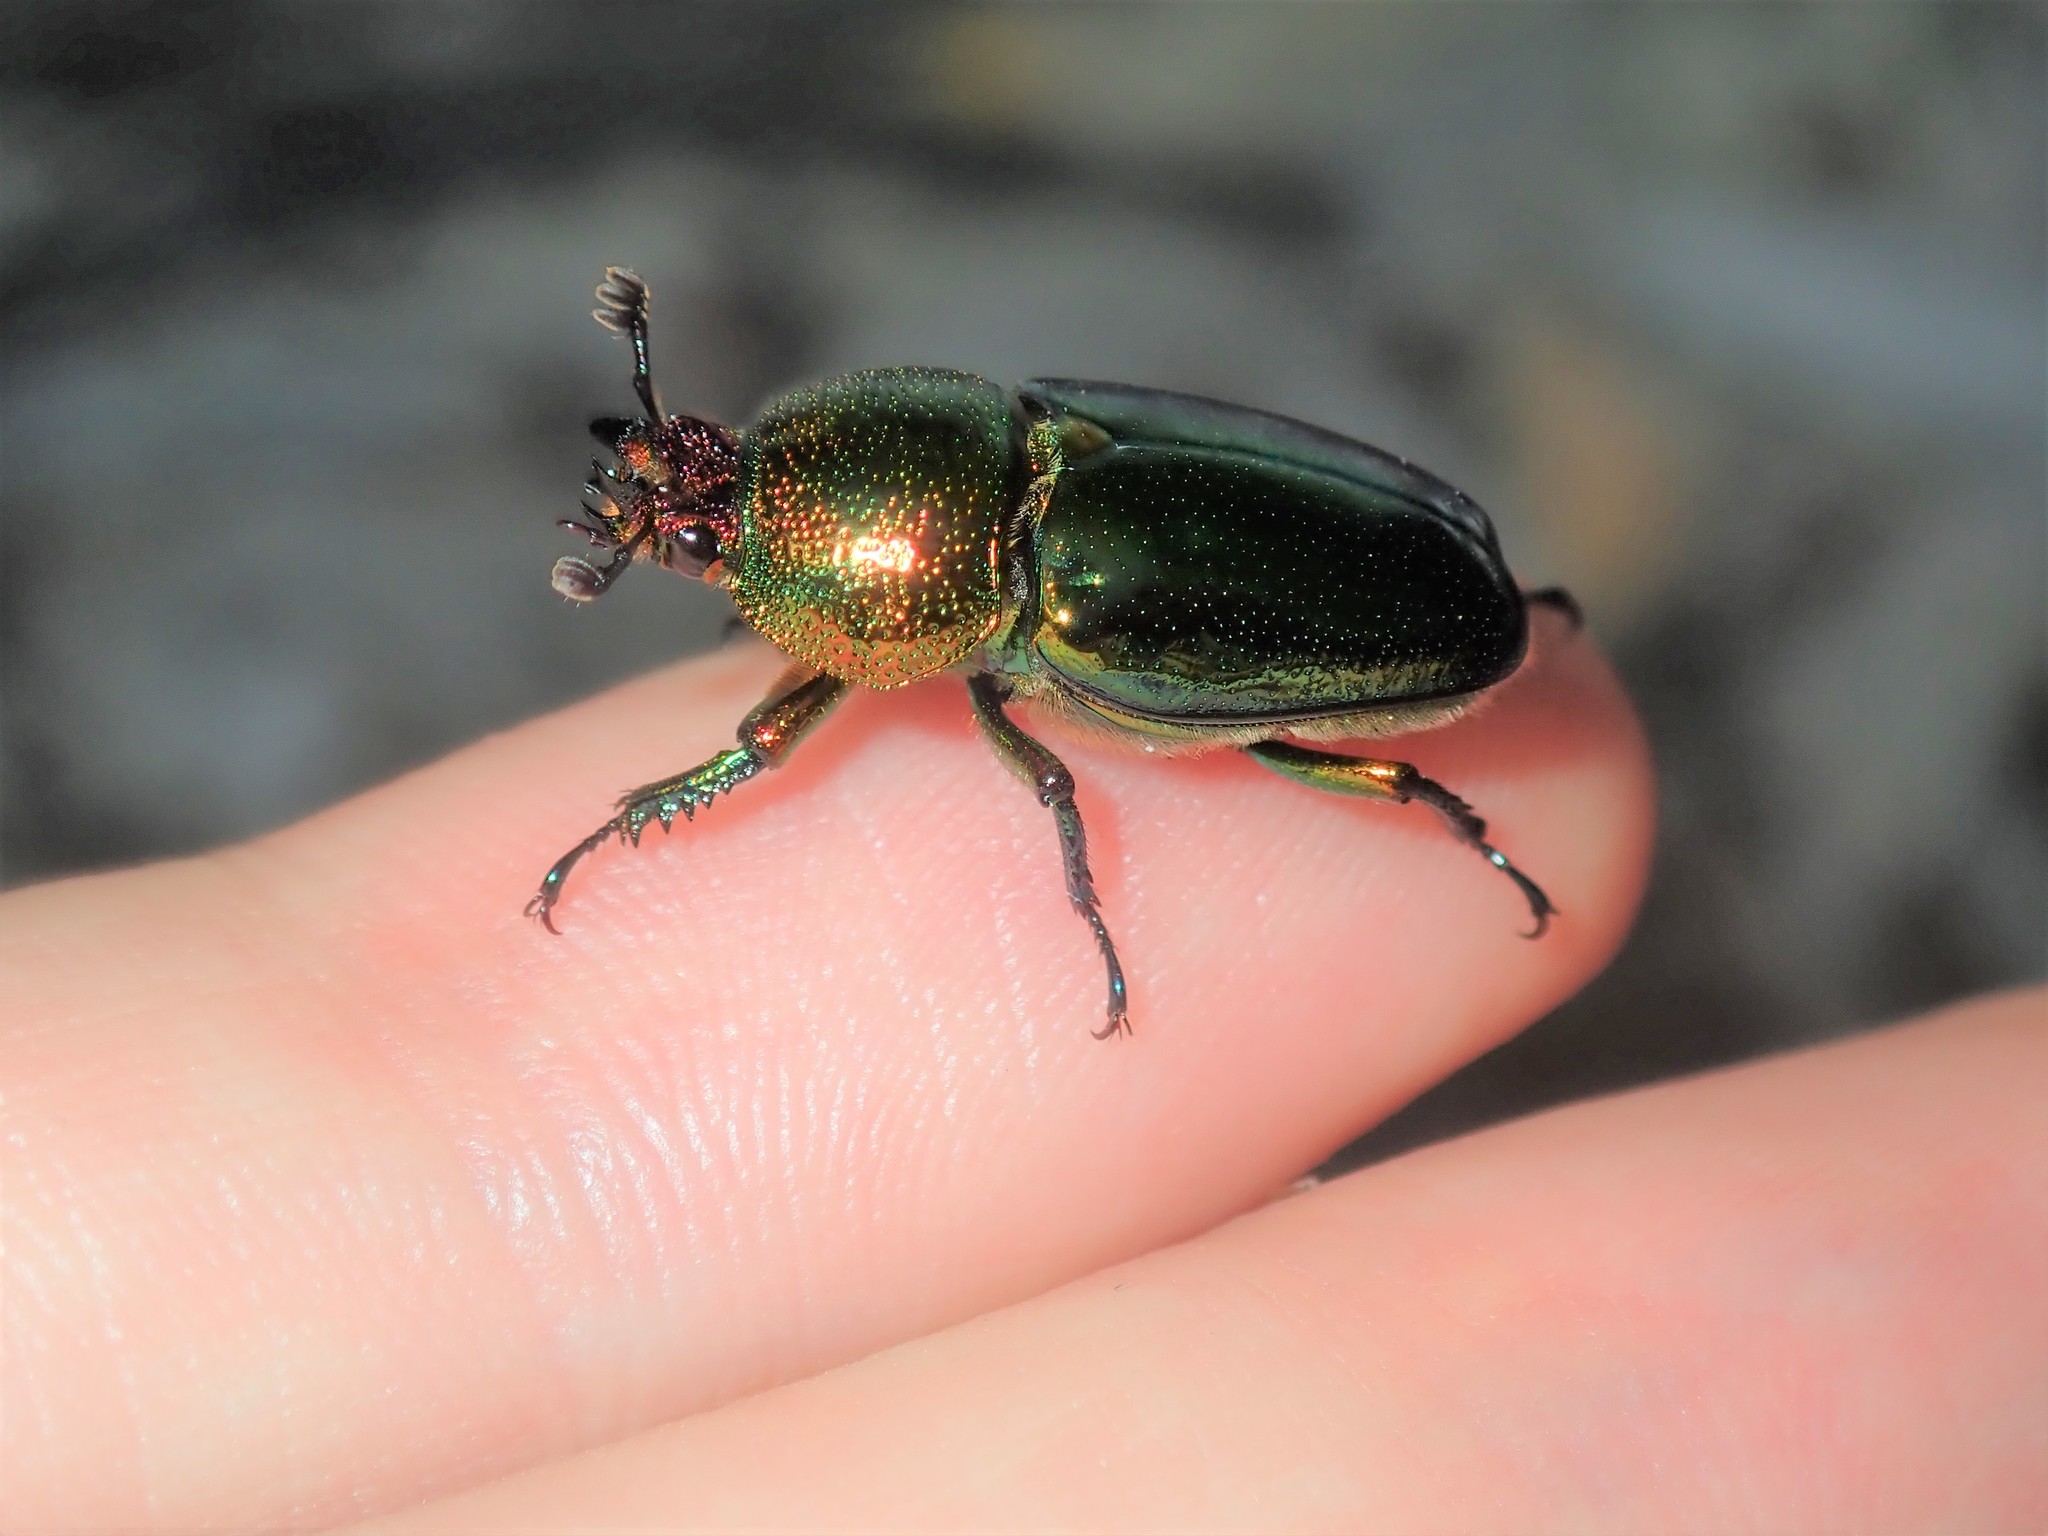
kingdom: Animalia
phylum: Arthropoda
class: Insecta
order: Coleoptera
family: Lucanidae
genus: Lamprima
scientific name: Lamprima aurata
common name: Golden stag beetle
